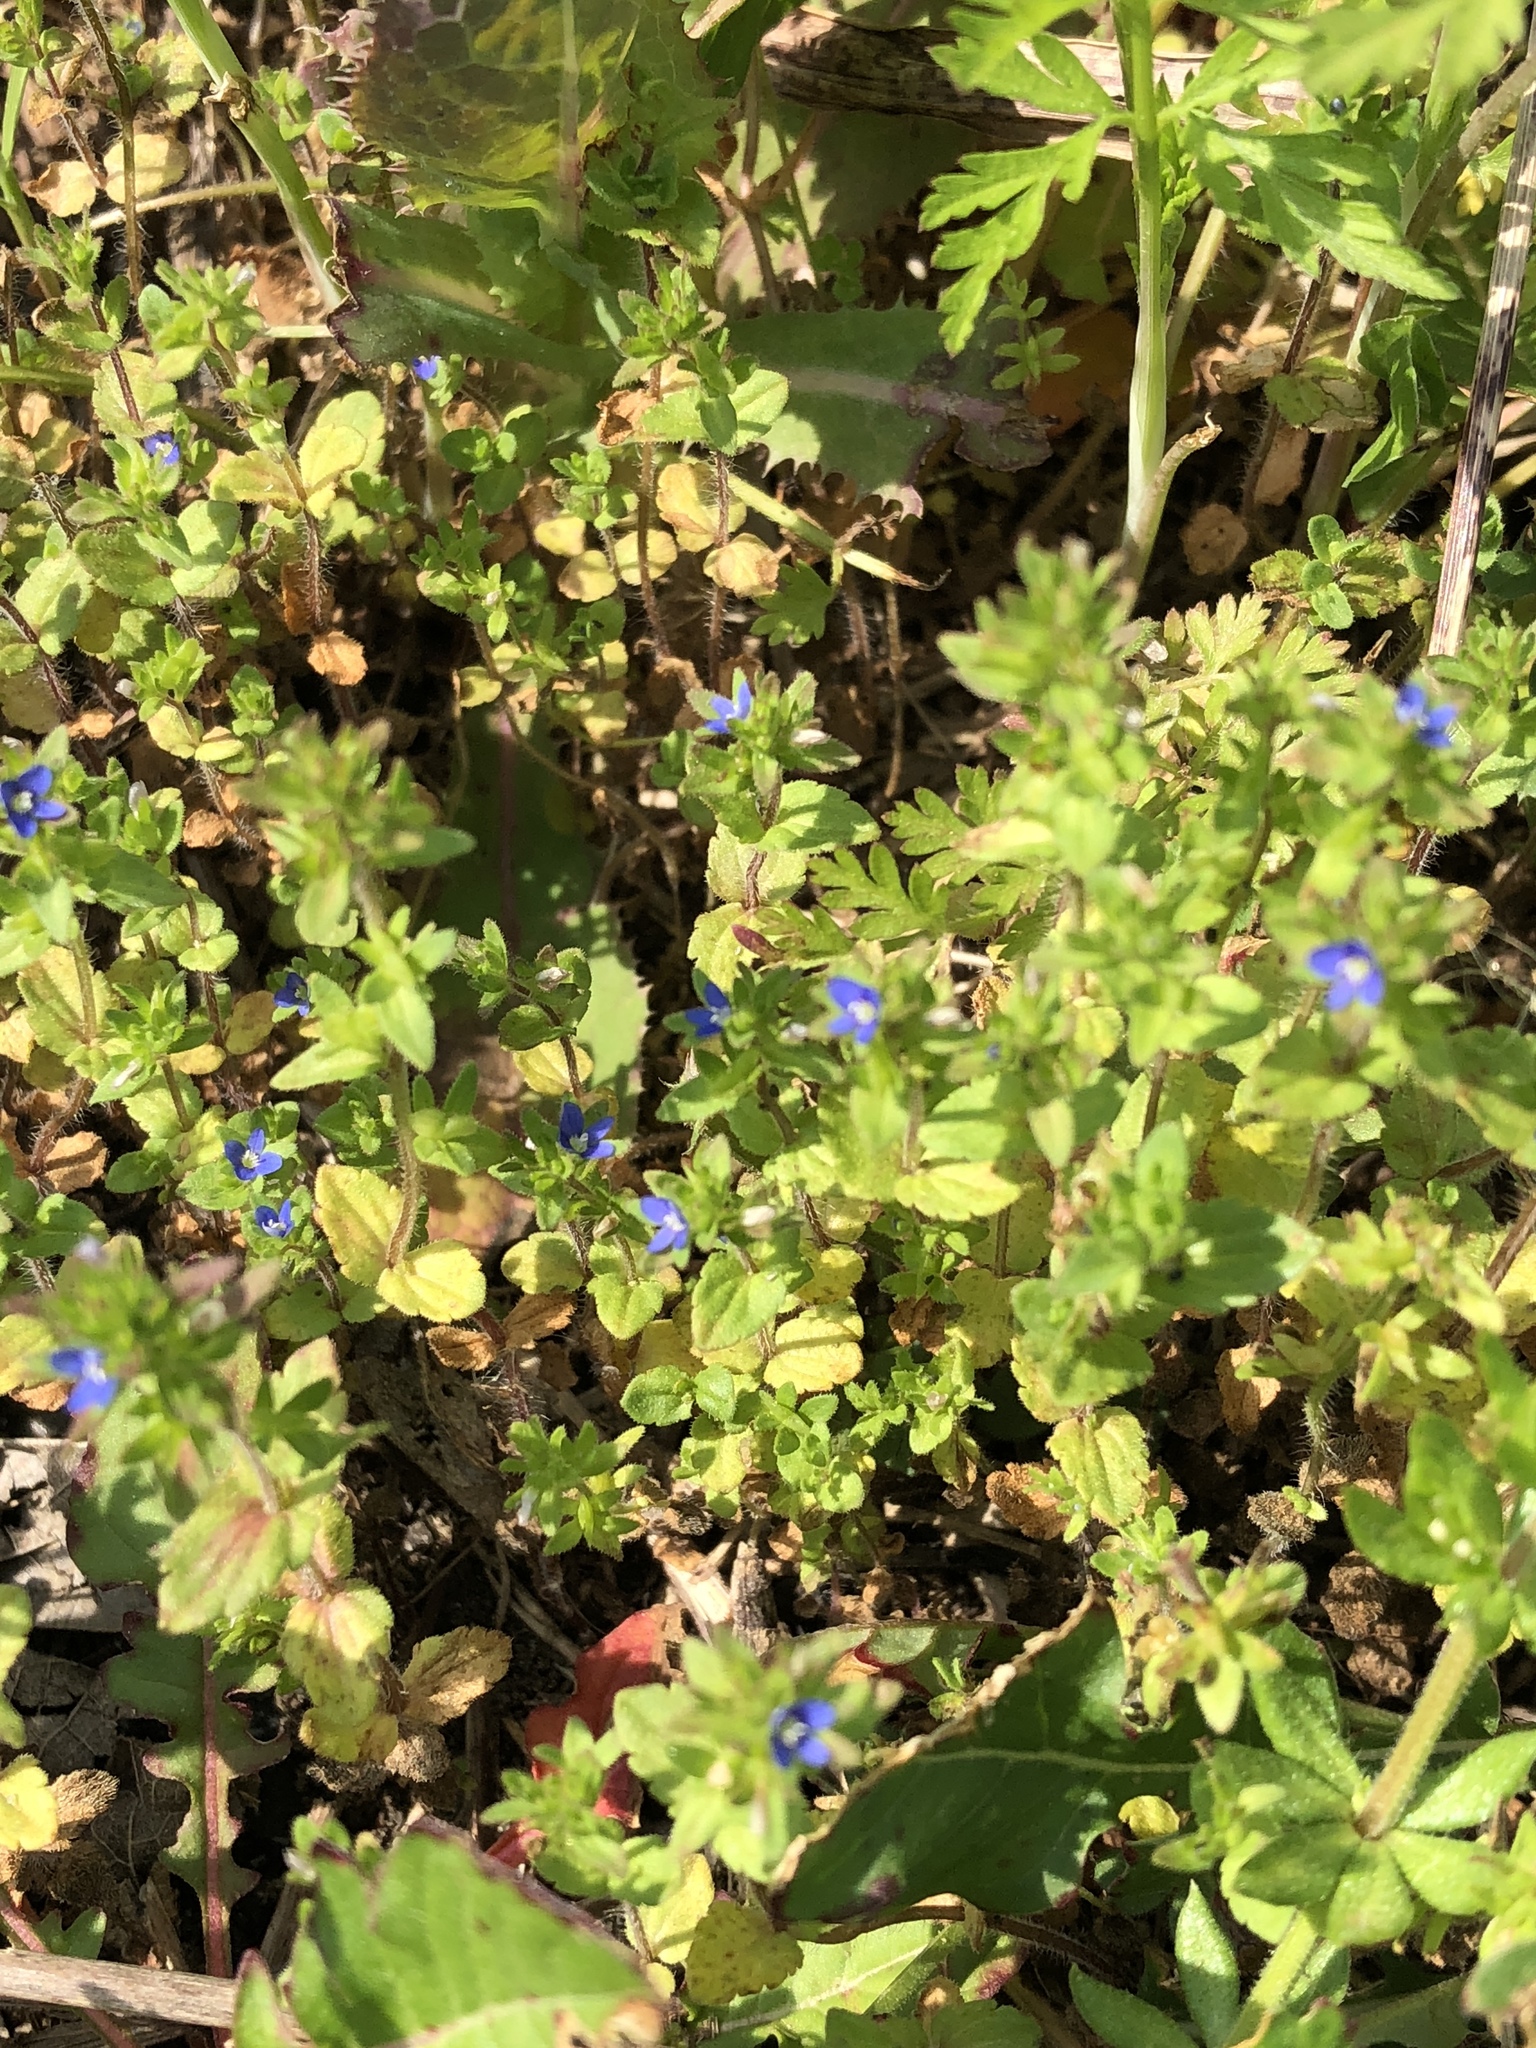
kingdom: Plantae
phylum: Tracheophyta
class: Magnoliopsida
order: Lamiales
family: Plantaginaceae
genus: Veronica
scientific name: Veronica arvensis
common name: Corn speedwell
